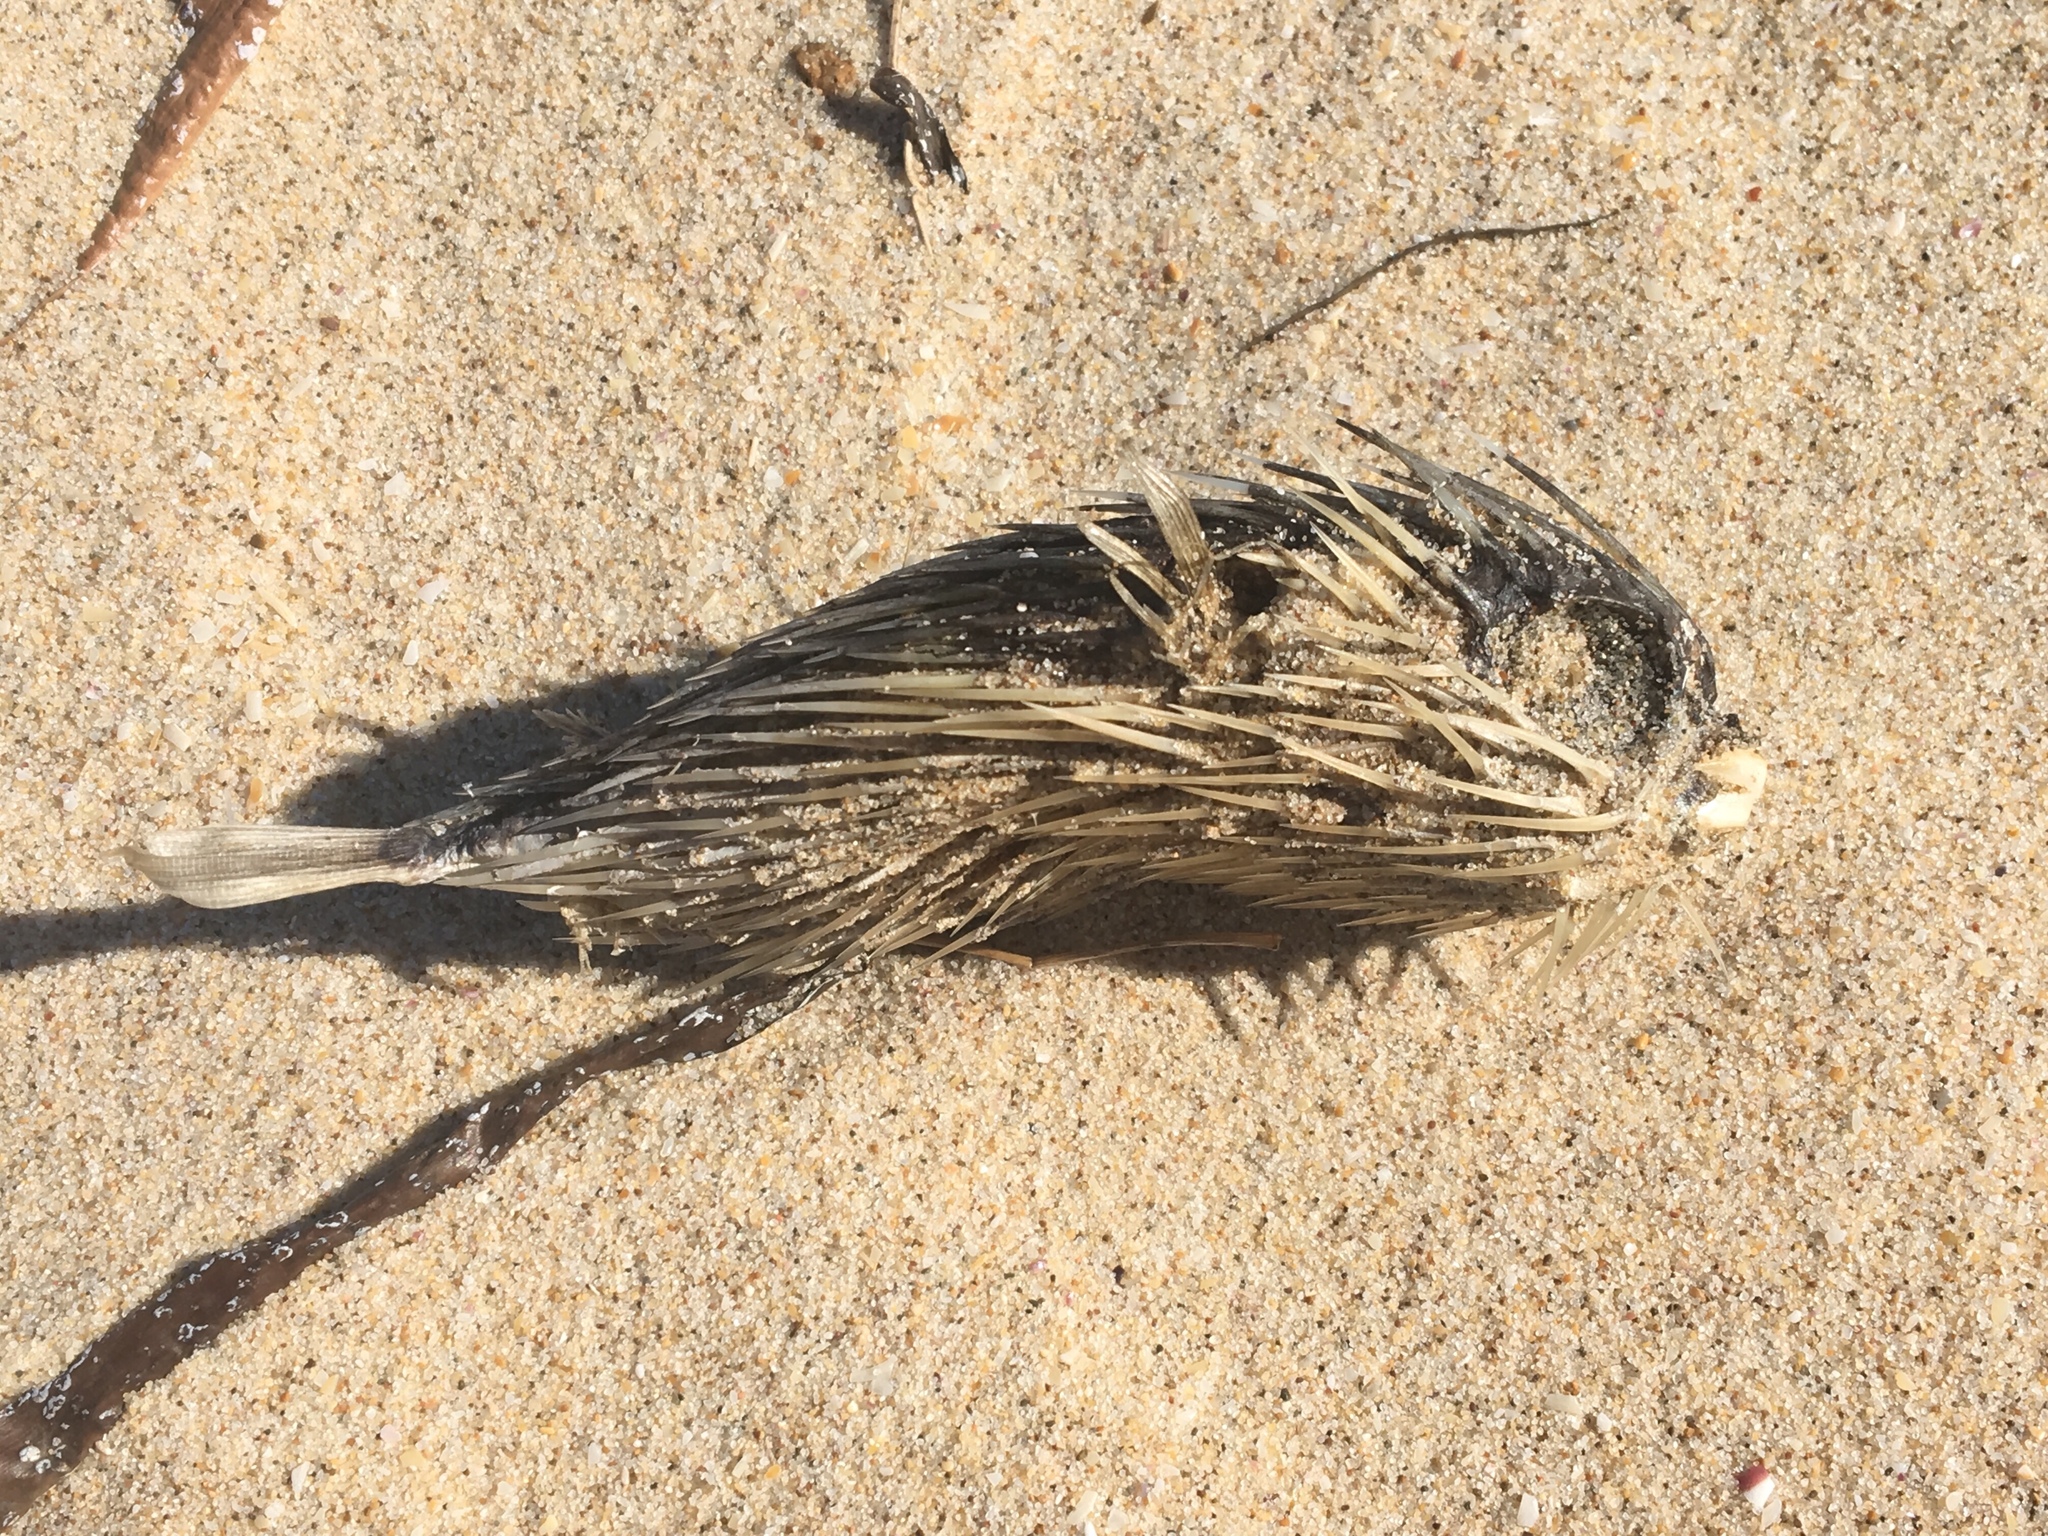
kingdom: Animalia
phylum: Chordata
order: Tetraodontiformes
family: Diodontidae
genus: Diodon
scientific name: Diodon holocanthus
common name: Balloonfish
